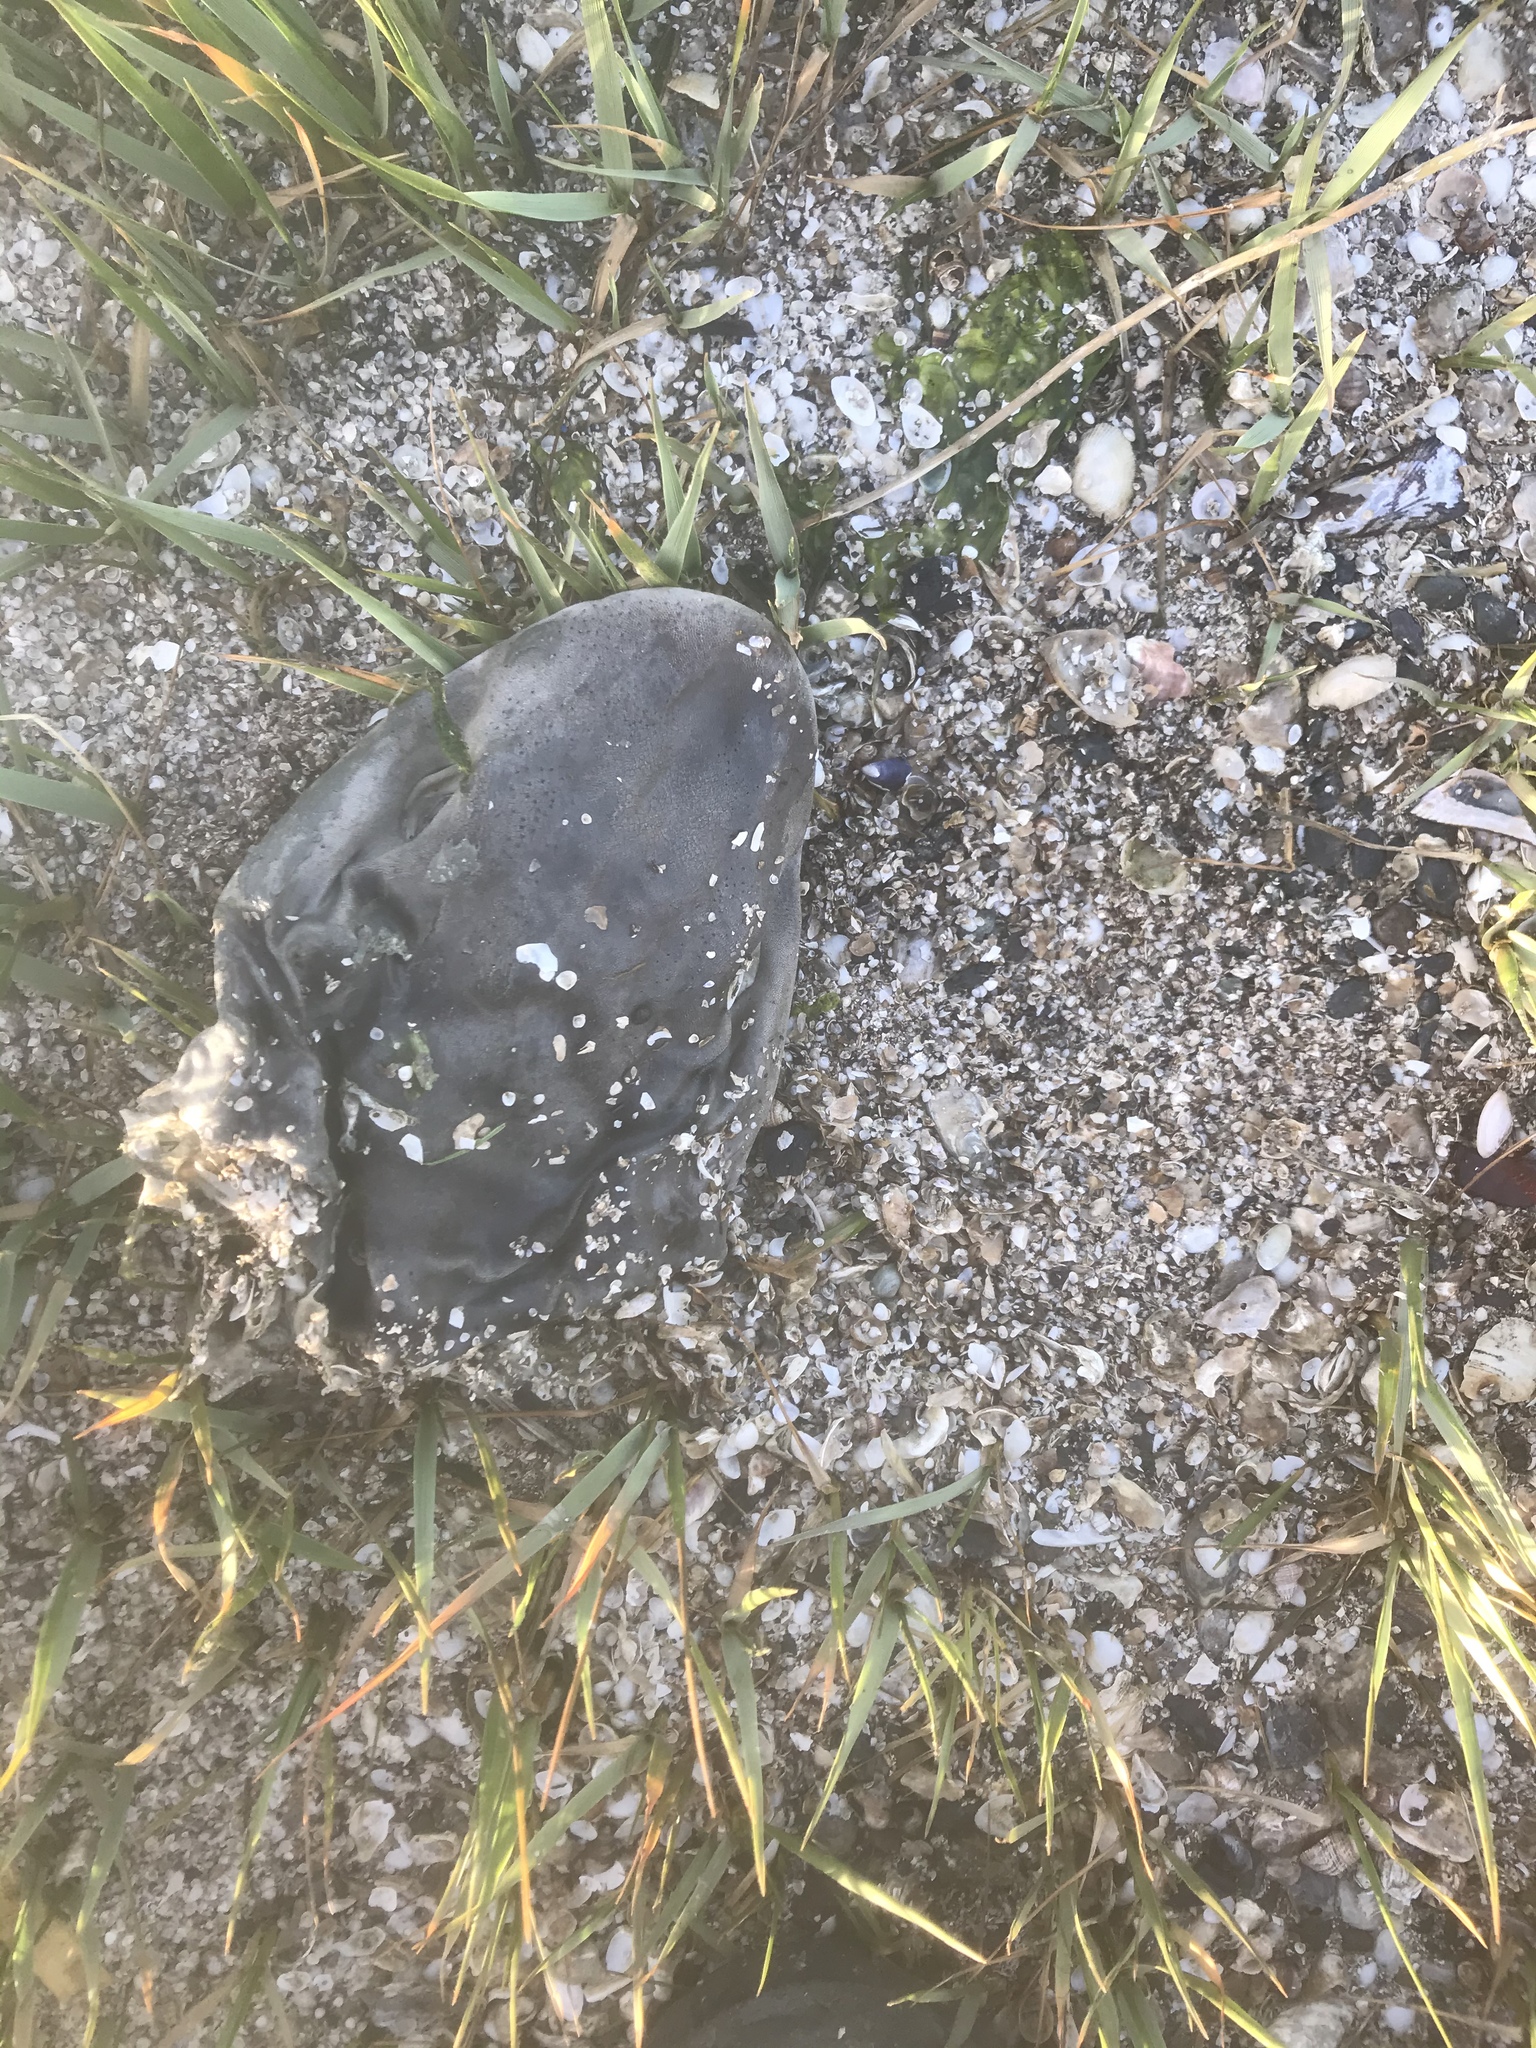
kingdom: Animalia
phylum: Chordata
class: Elasmobranchii
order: Carcharhiniformes
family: Triakidae
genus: Triakis
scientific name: Triakis semifasciata
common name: Leopard shark
